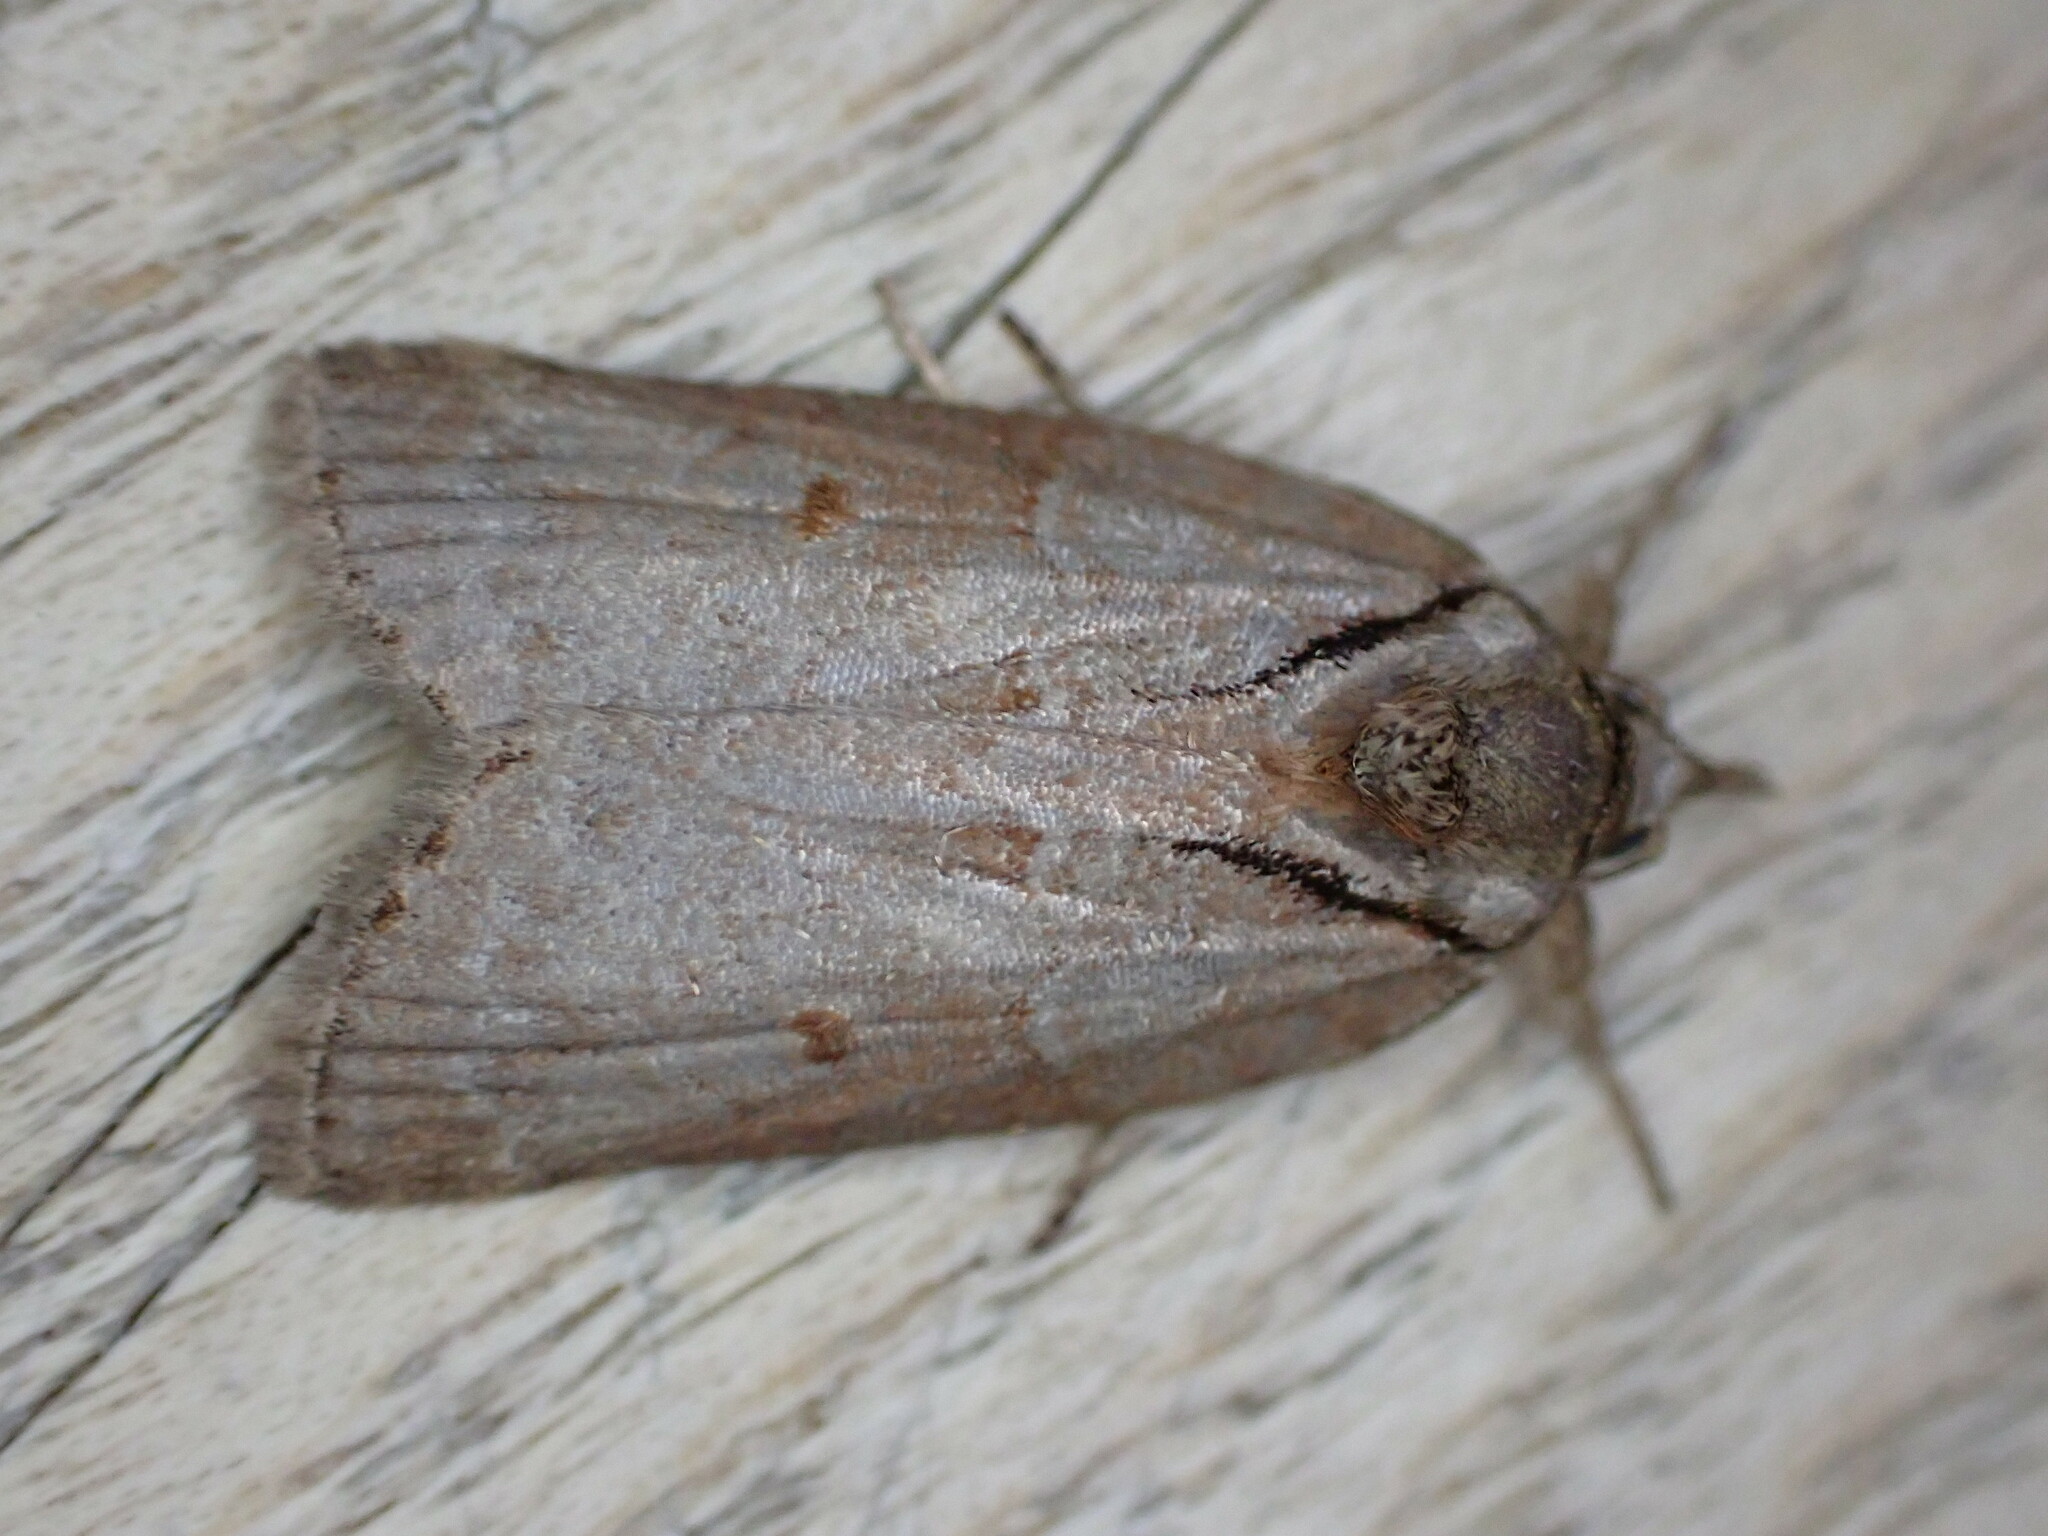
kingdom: Animalia
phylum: Arthropoda
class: Insecta
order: Lepidoptera
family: Nolidae
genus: Nycteola
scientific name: Nycteola revayana
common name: Oak nycteoline
